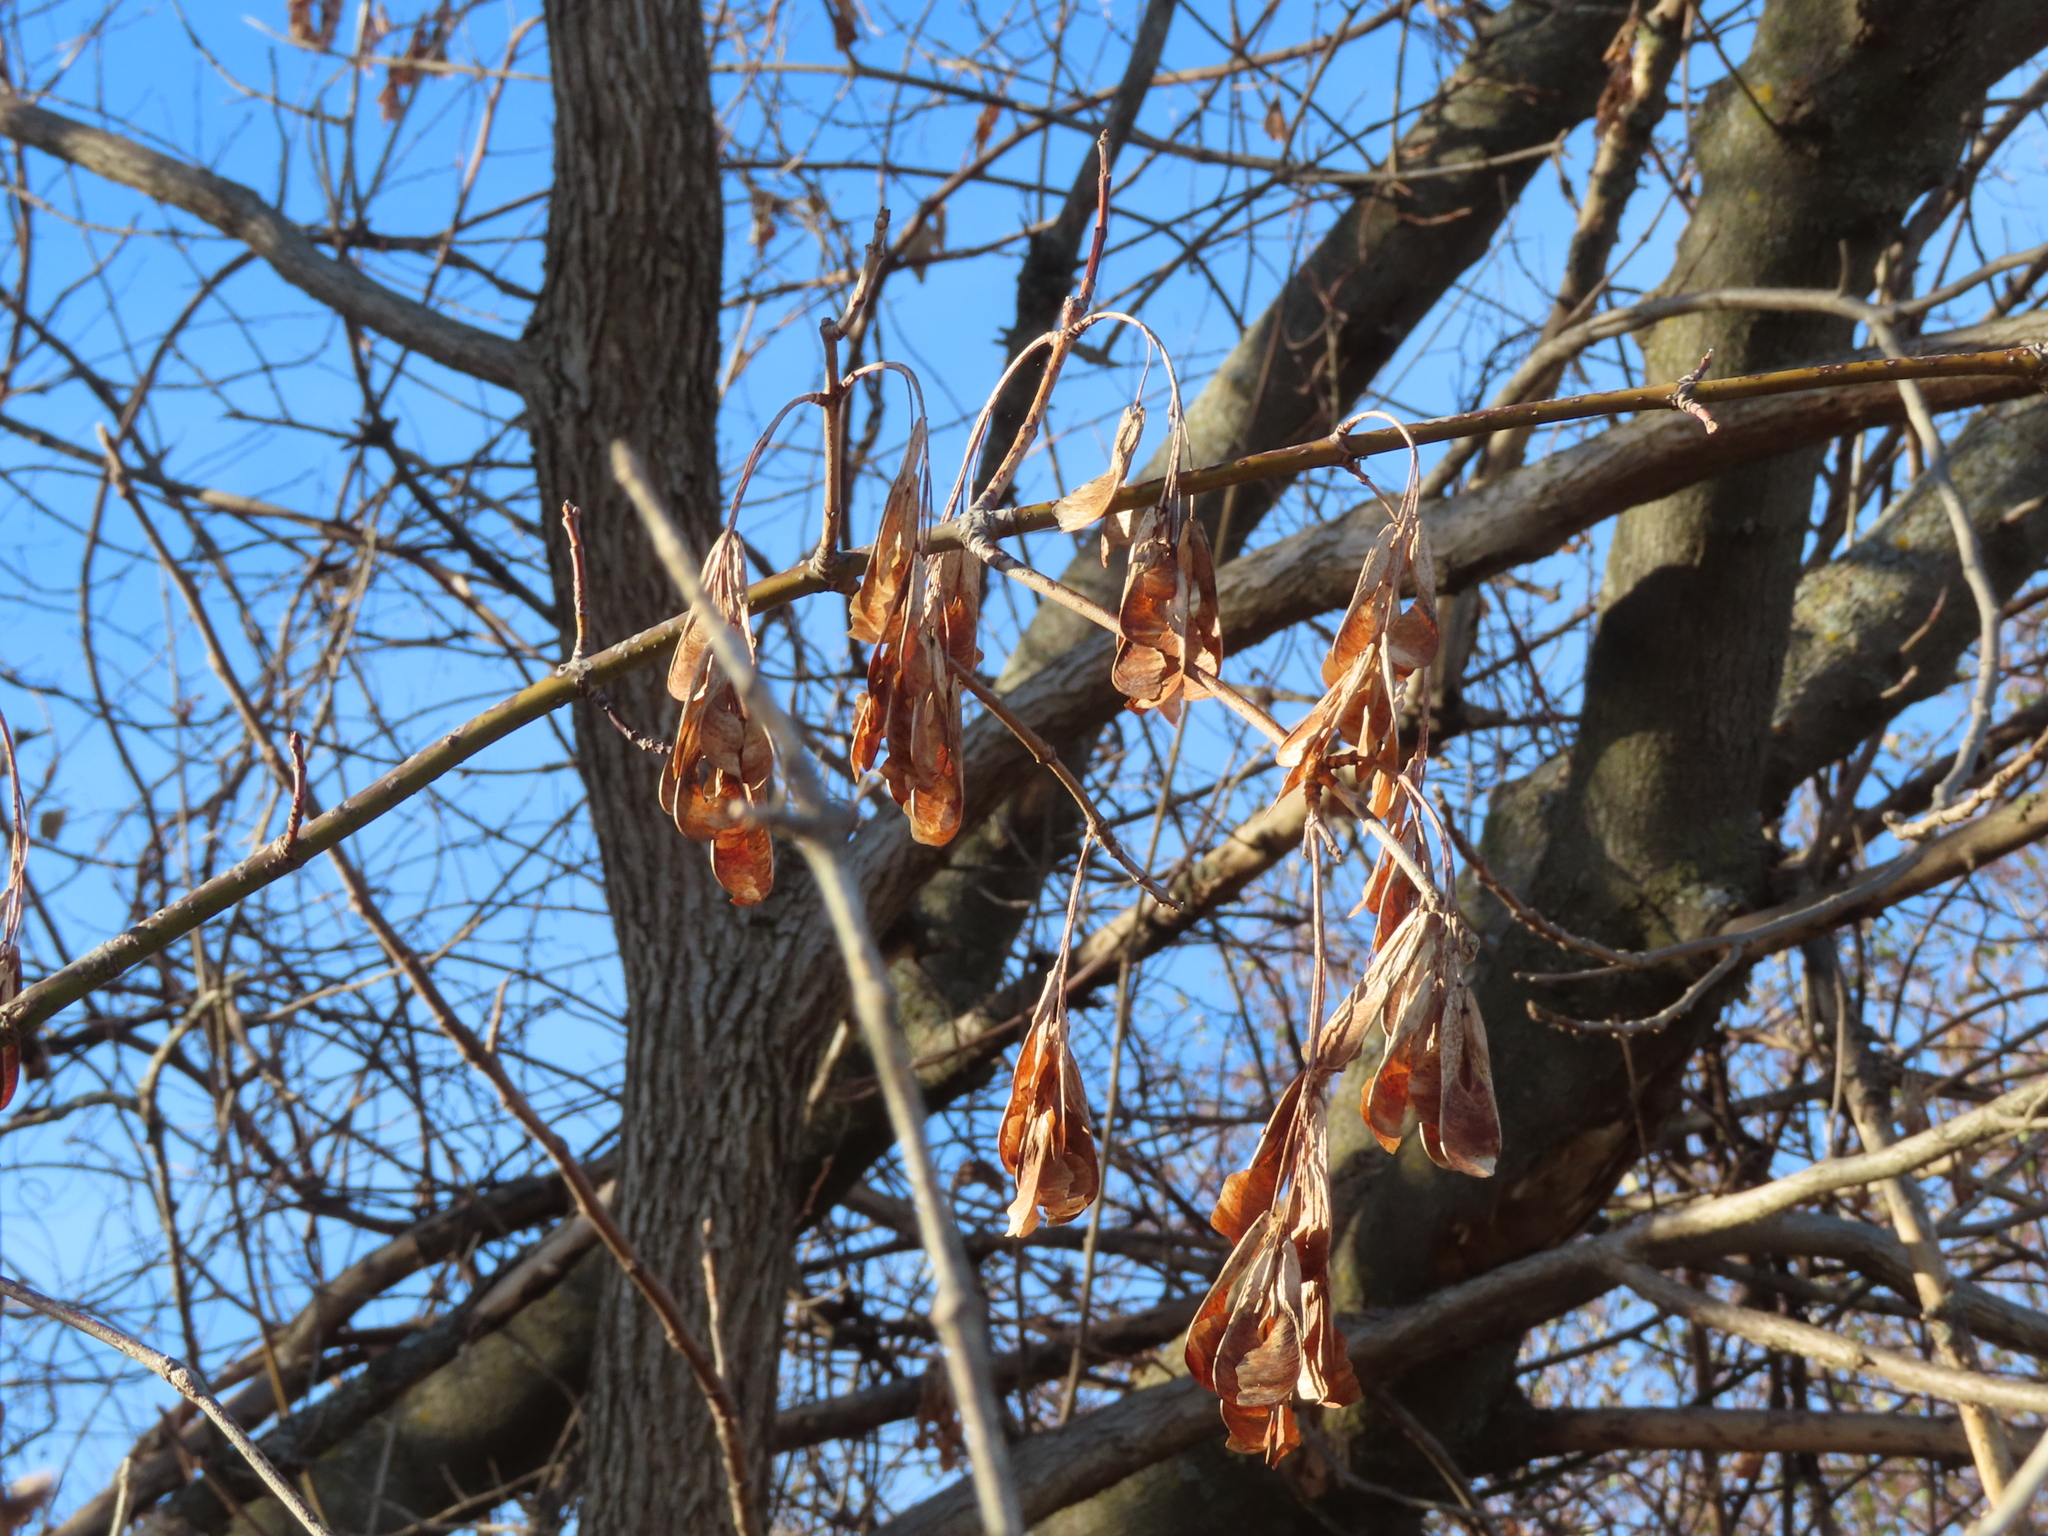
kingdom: Plantae
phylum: Tracheophyta
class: Magnoliopsida
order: Sapindales
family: Sapindaceae
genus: Acer
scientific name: Acer negundo
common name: Ashleaf maple
